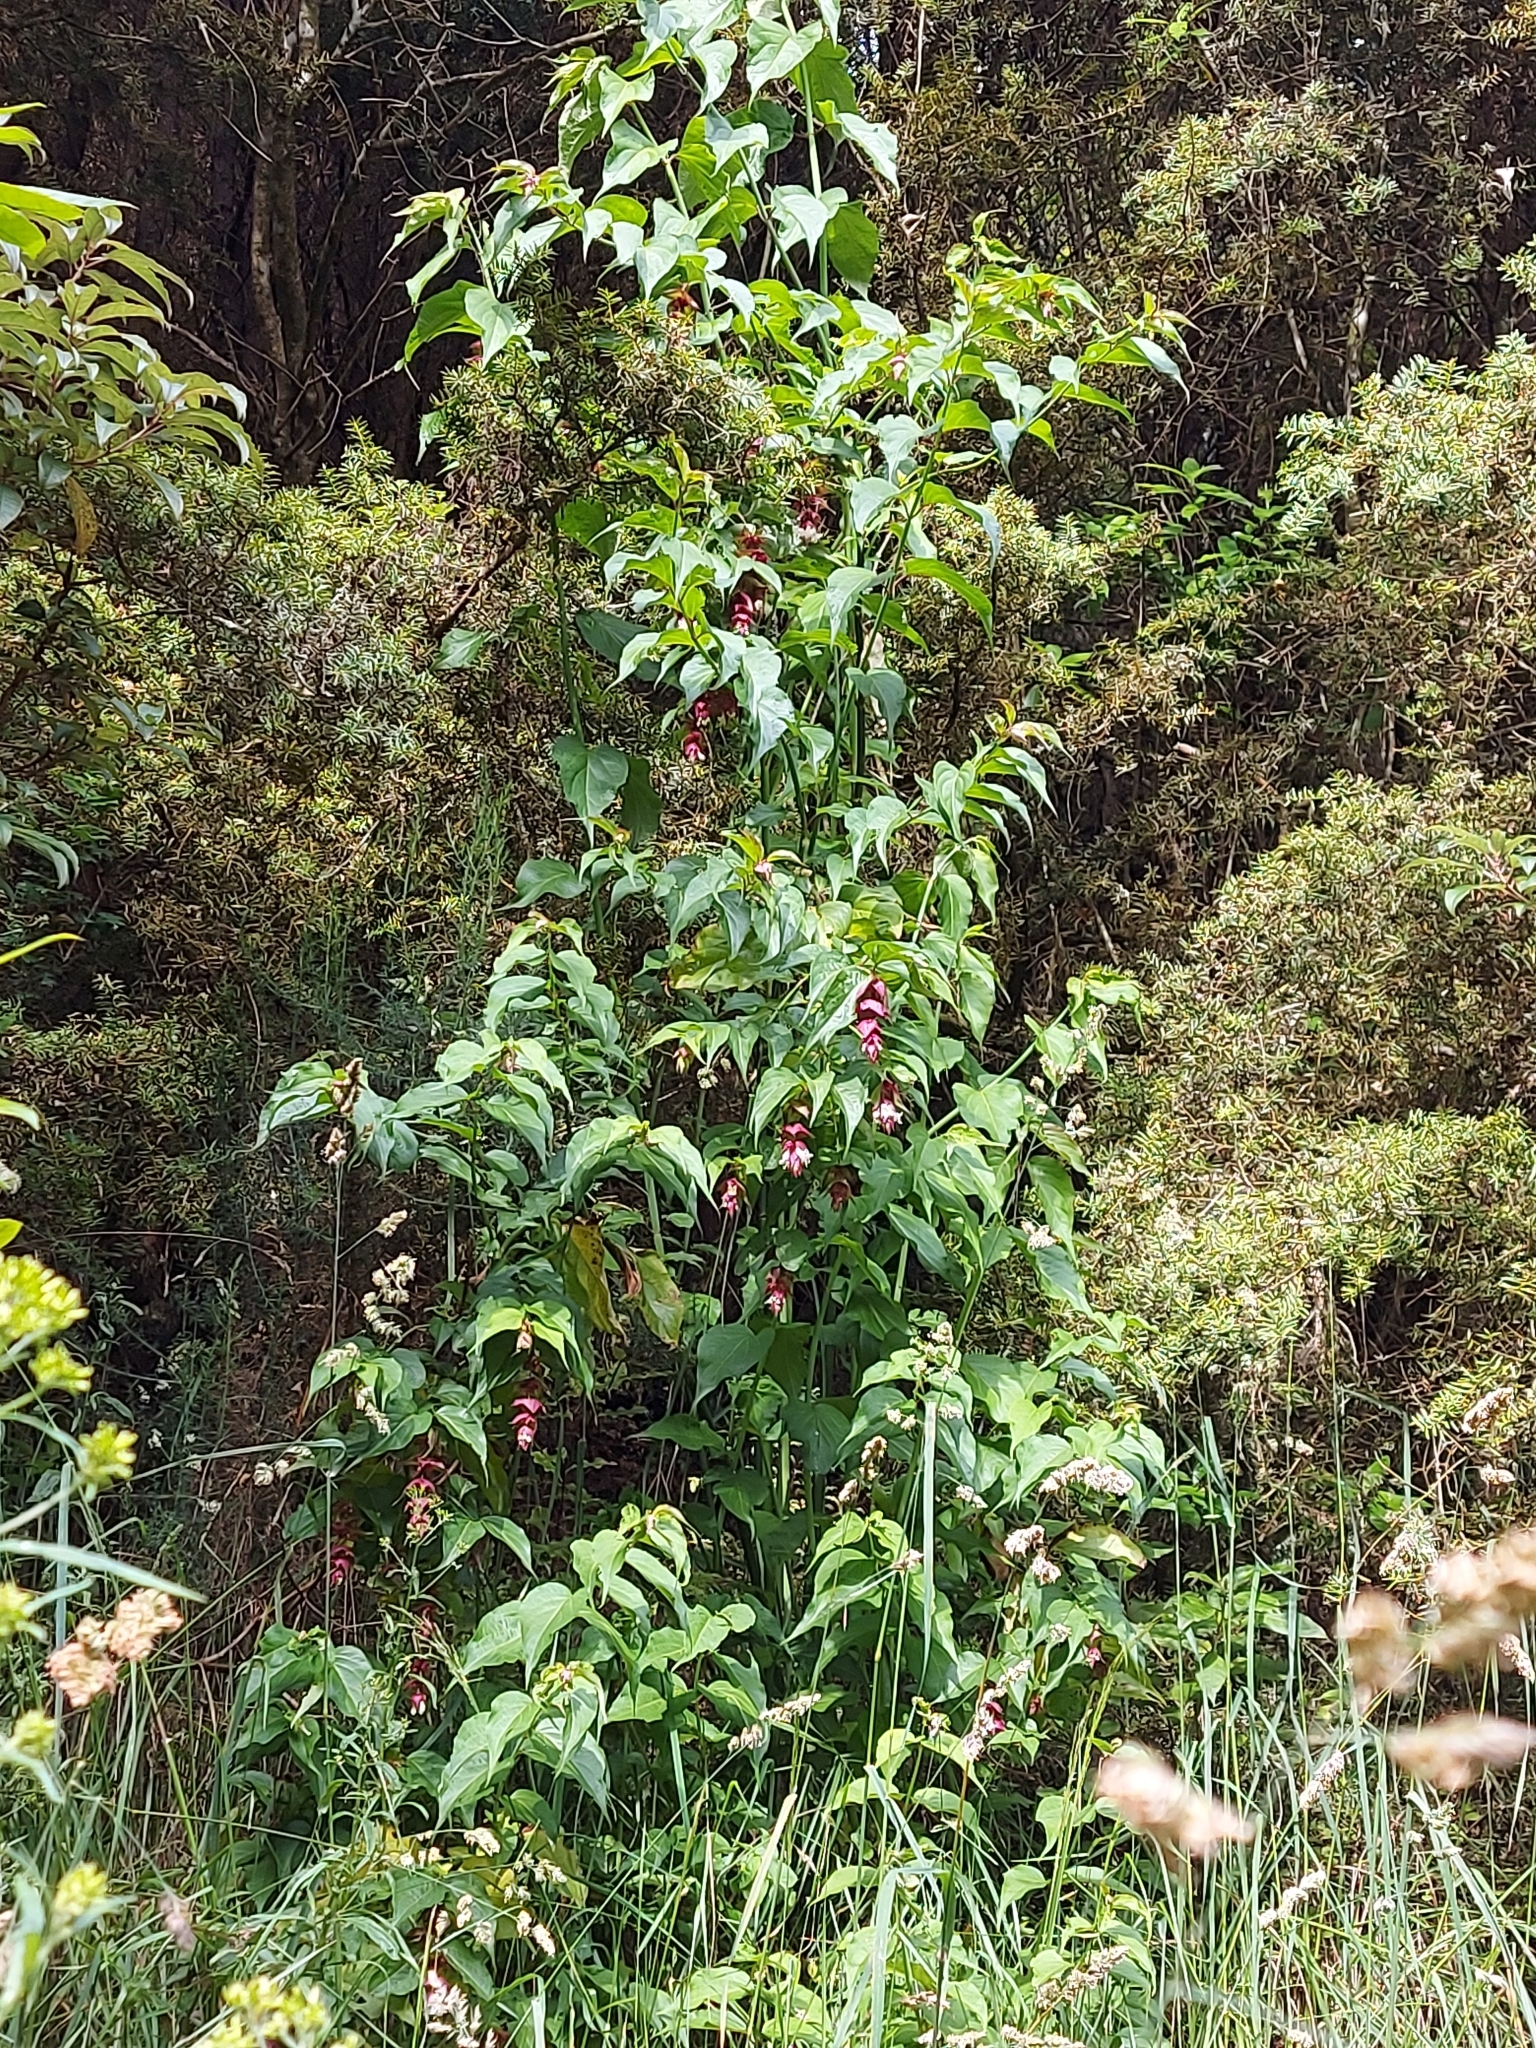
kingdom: Plantae
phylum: Tracheophyta
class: Magnoliopsida
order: Dipsacales
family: Caprifoliaceae
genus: Leycesteria
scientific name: Leycesteria formosa
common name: Himalayan honeysuckle
